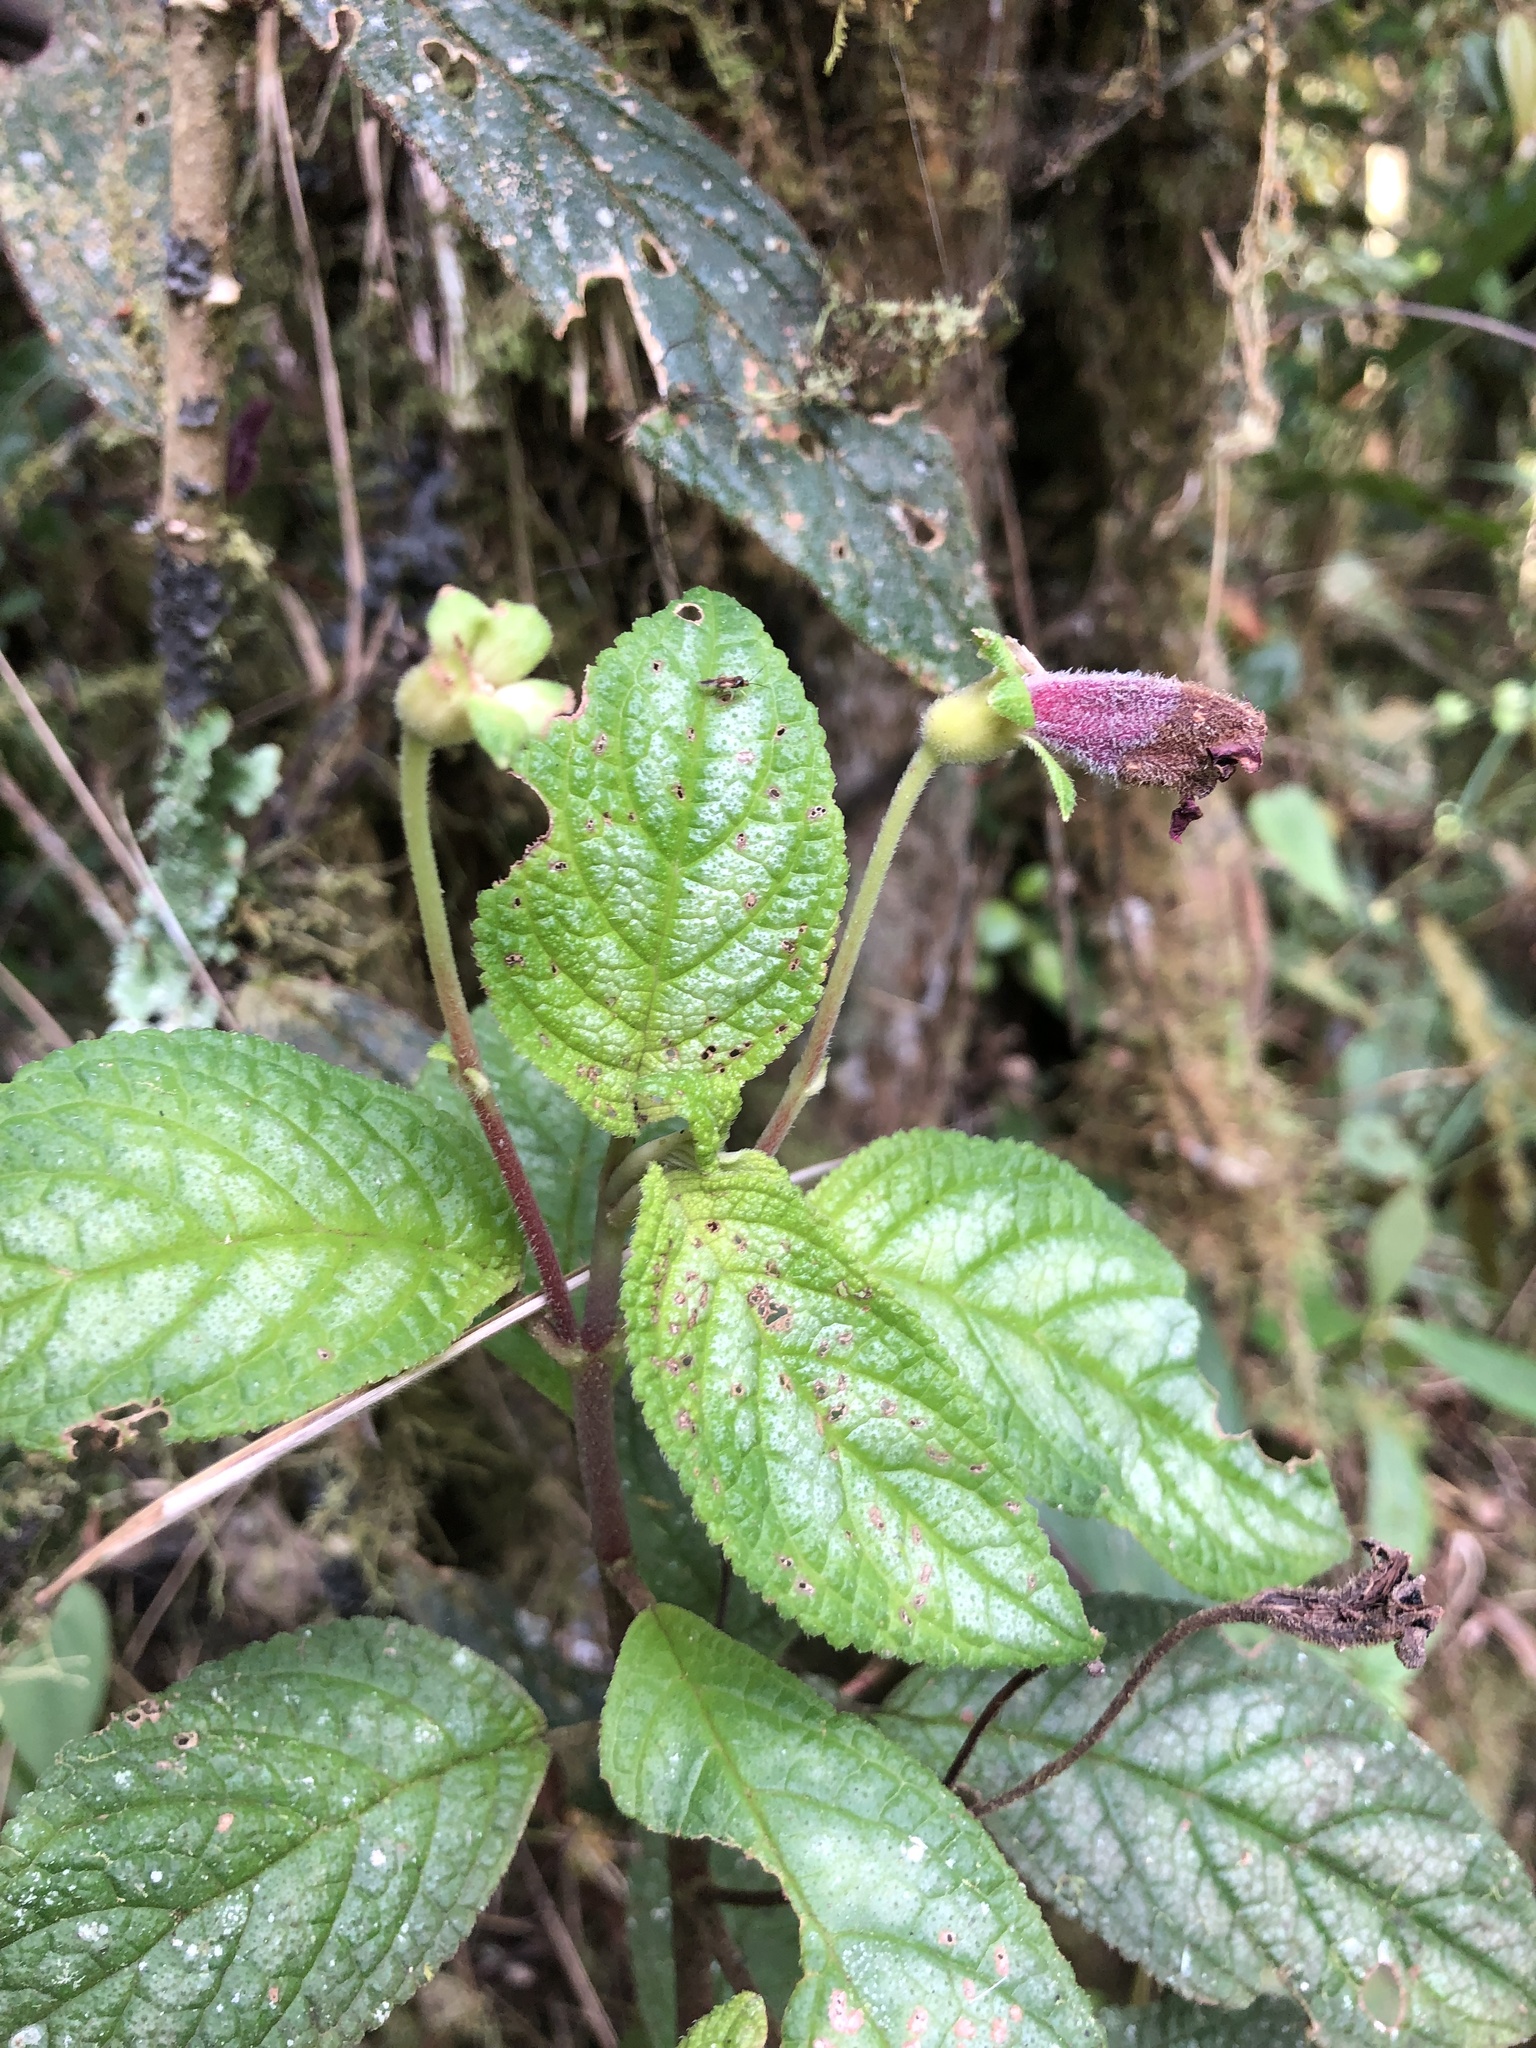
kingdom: Plantae
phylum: Tracheophyta
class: Magnoliopsida
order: Lamiales
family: Gesneriaceae
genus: Kohleria
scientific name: Kohleria inaequalis
